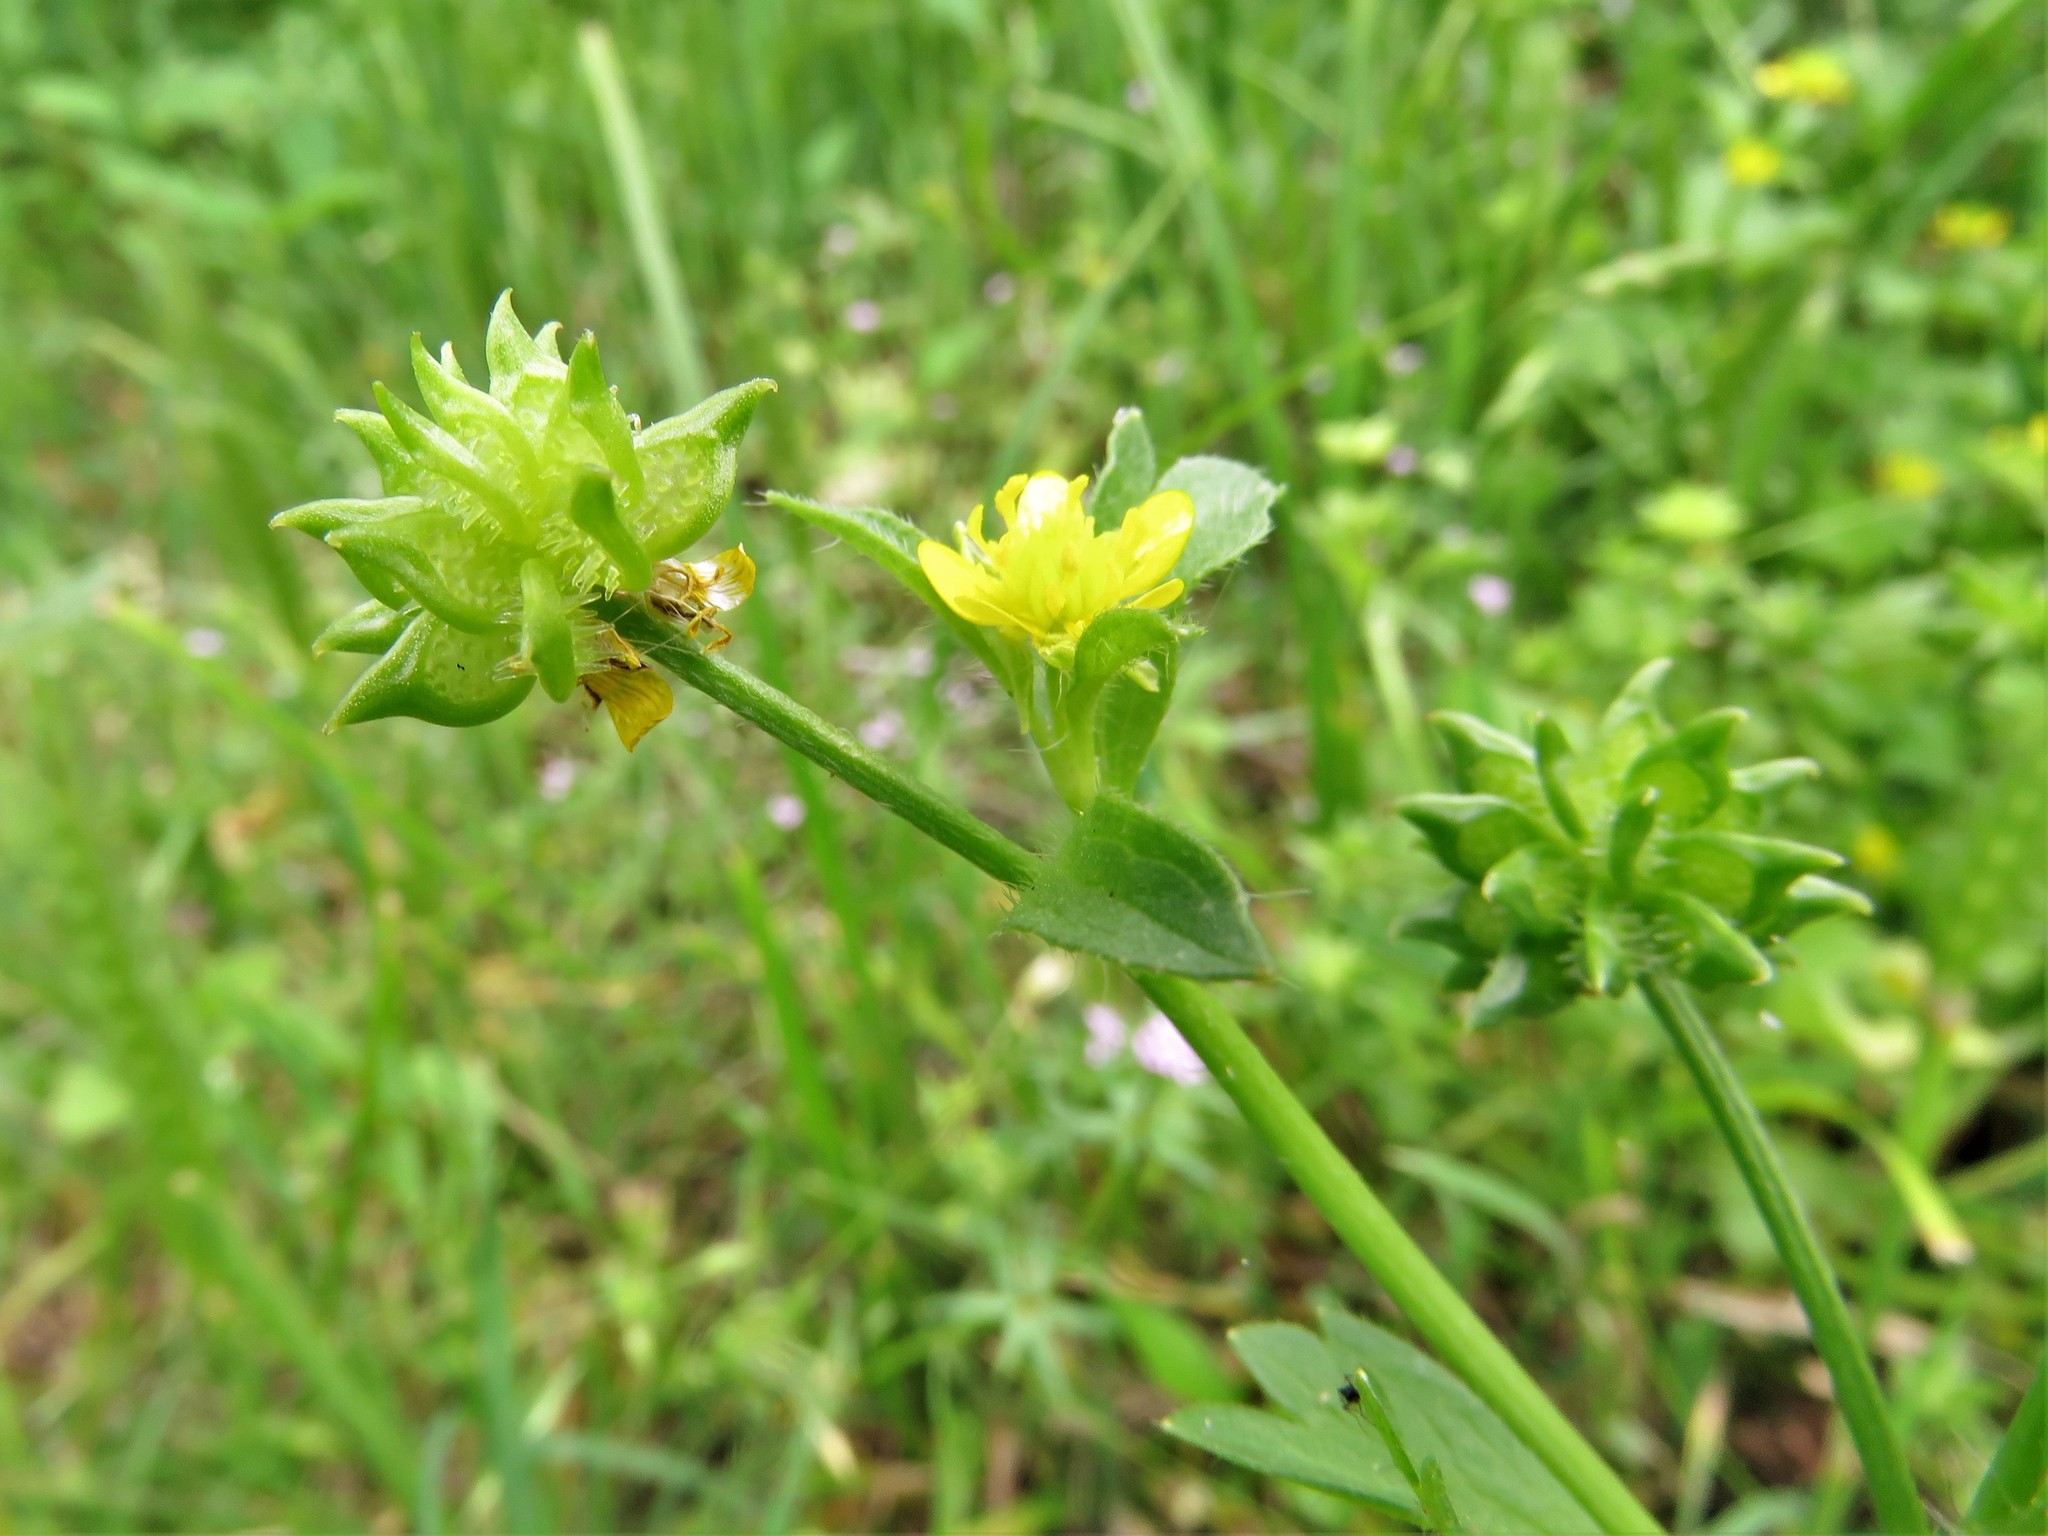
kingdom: Plantae
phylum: Tracheophyta
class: Magnoliopsida
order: Ranunculales
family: Ranunculaceae
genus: Ranunculus
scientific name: Ranunculus muricatus
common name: Rough-fruited buttercup
